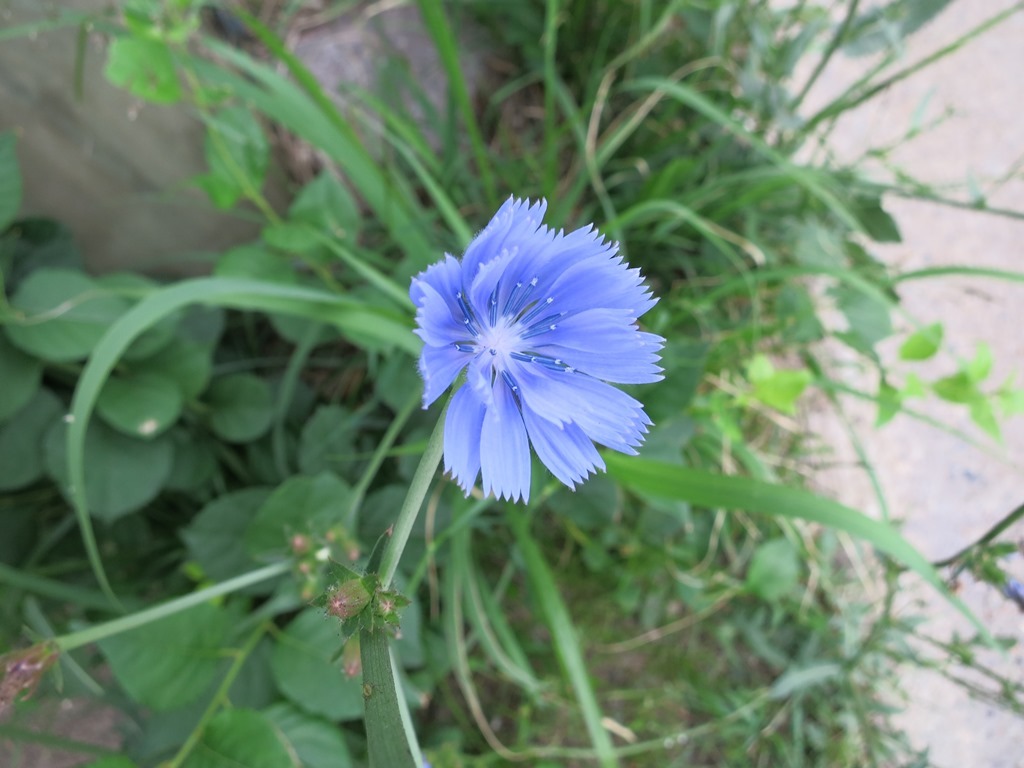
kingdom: Plantae
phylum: Tracheophyta
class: Magnoliopsida
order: Asterales
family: Asteraceae
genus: Cichorium
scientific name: Cichorium intybus
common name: Chicory
